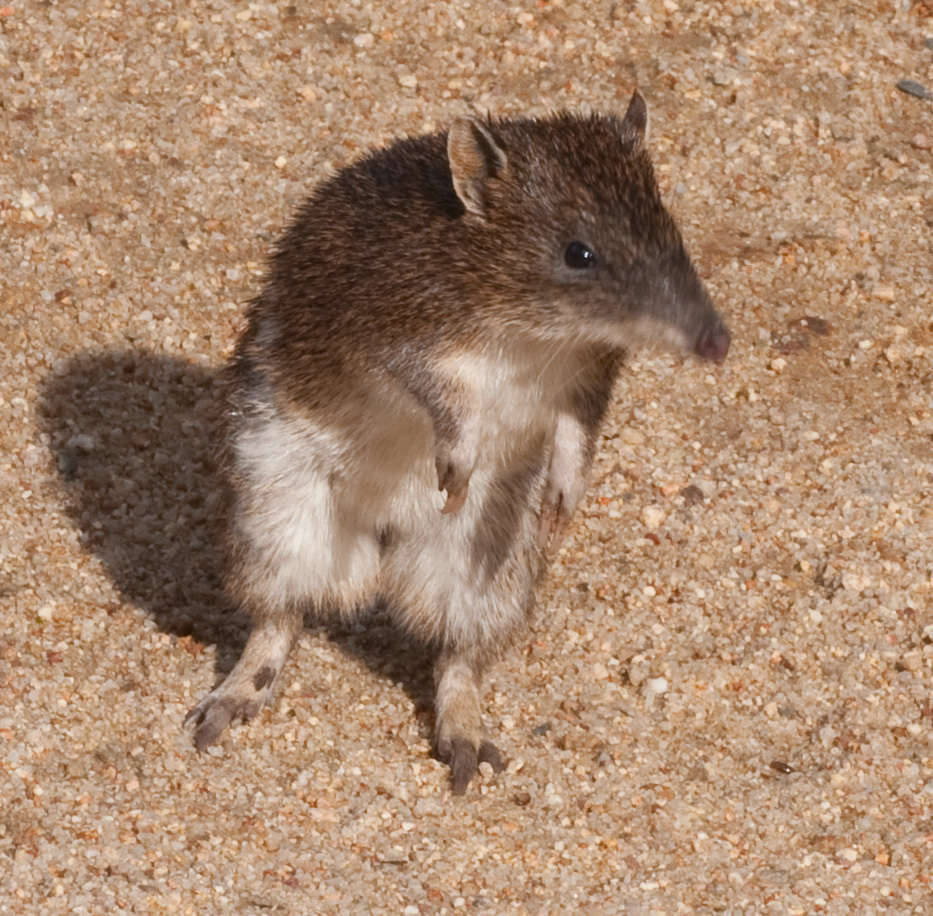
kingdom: Animalia
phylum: Chordata
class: Mammalia
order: Peramelemorphia
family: Peramelidae
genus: Isoodon
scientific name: Isoodon obesulus
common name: Southern brown bandicoot
